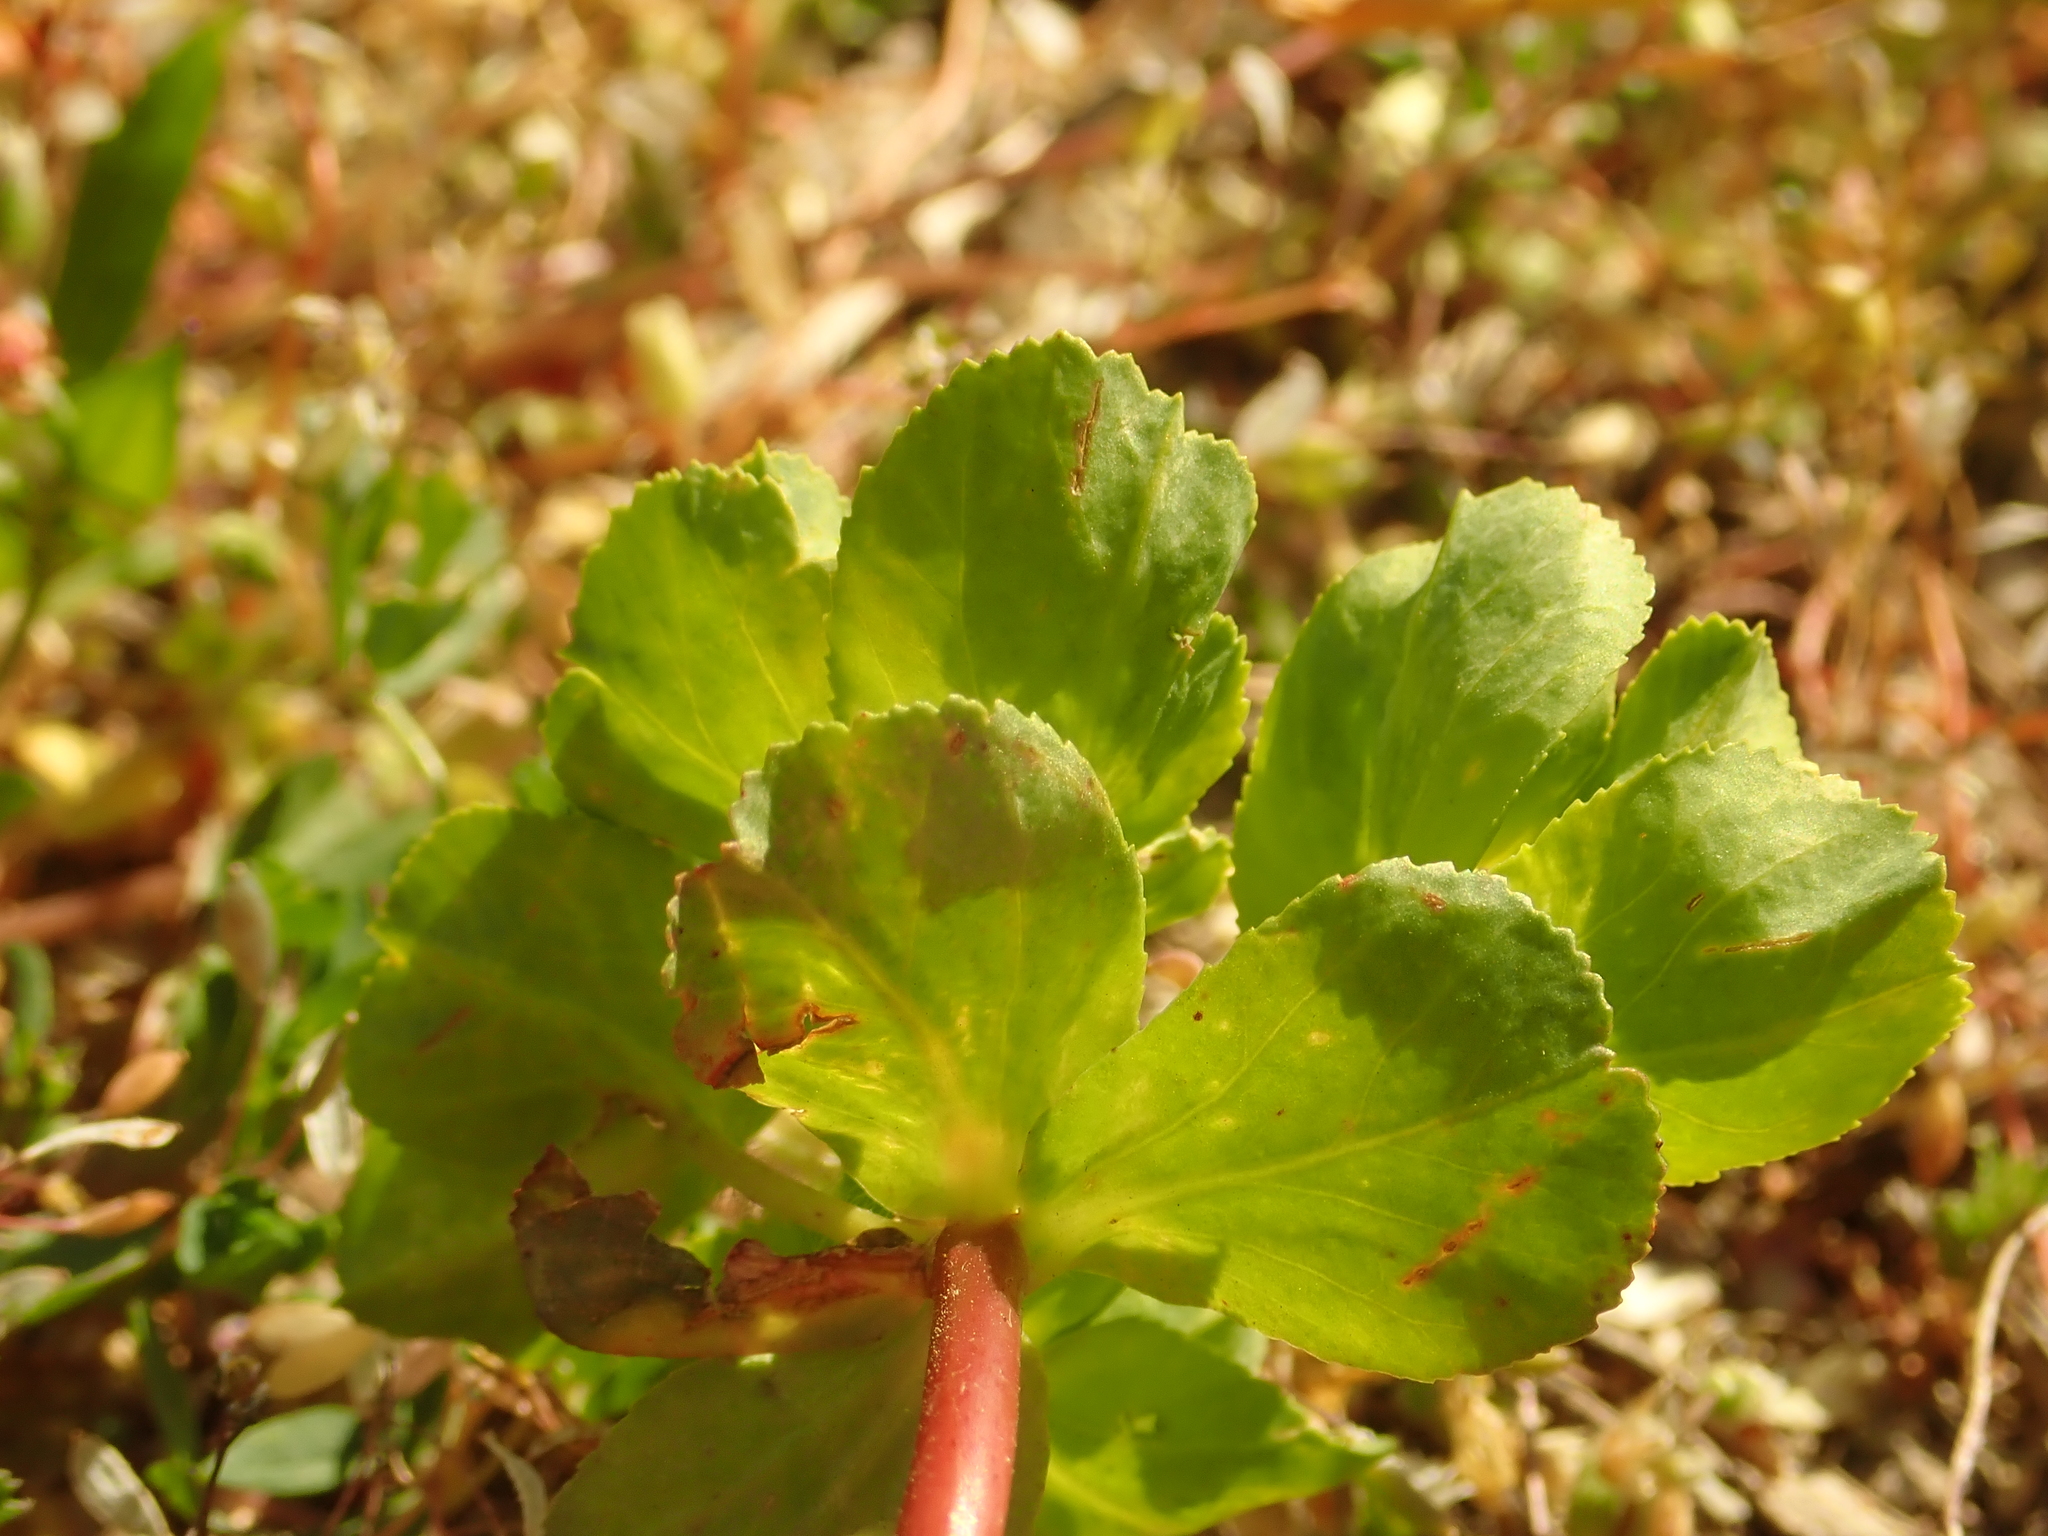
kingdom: Plantae
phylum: Tracheophyta
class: Magnoliopsida
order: Malpighiales
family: Euphorbiaceae
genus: Euphorbia
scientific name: Euphorbia helioscopia
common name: Sun spurge
